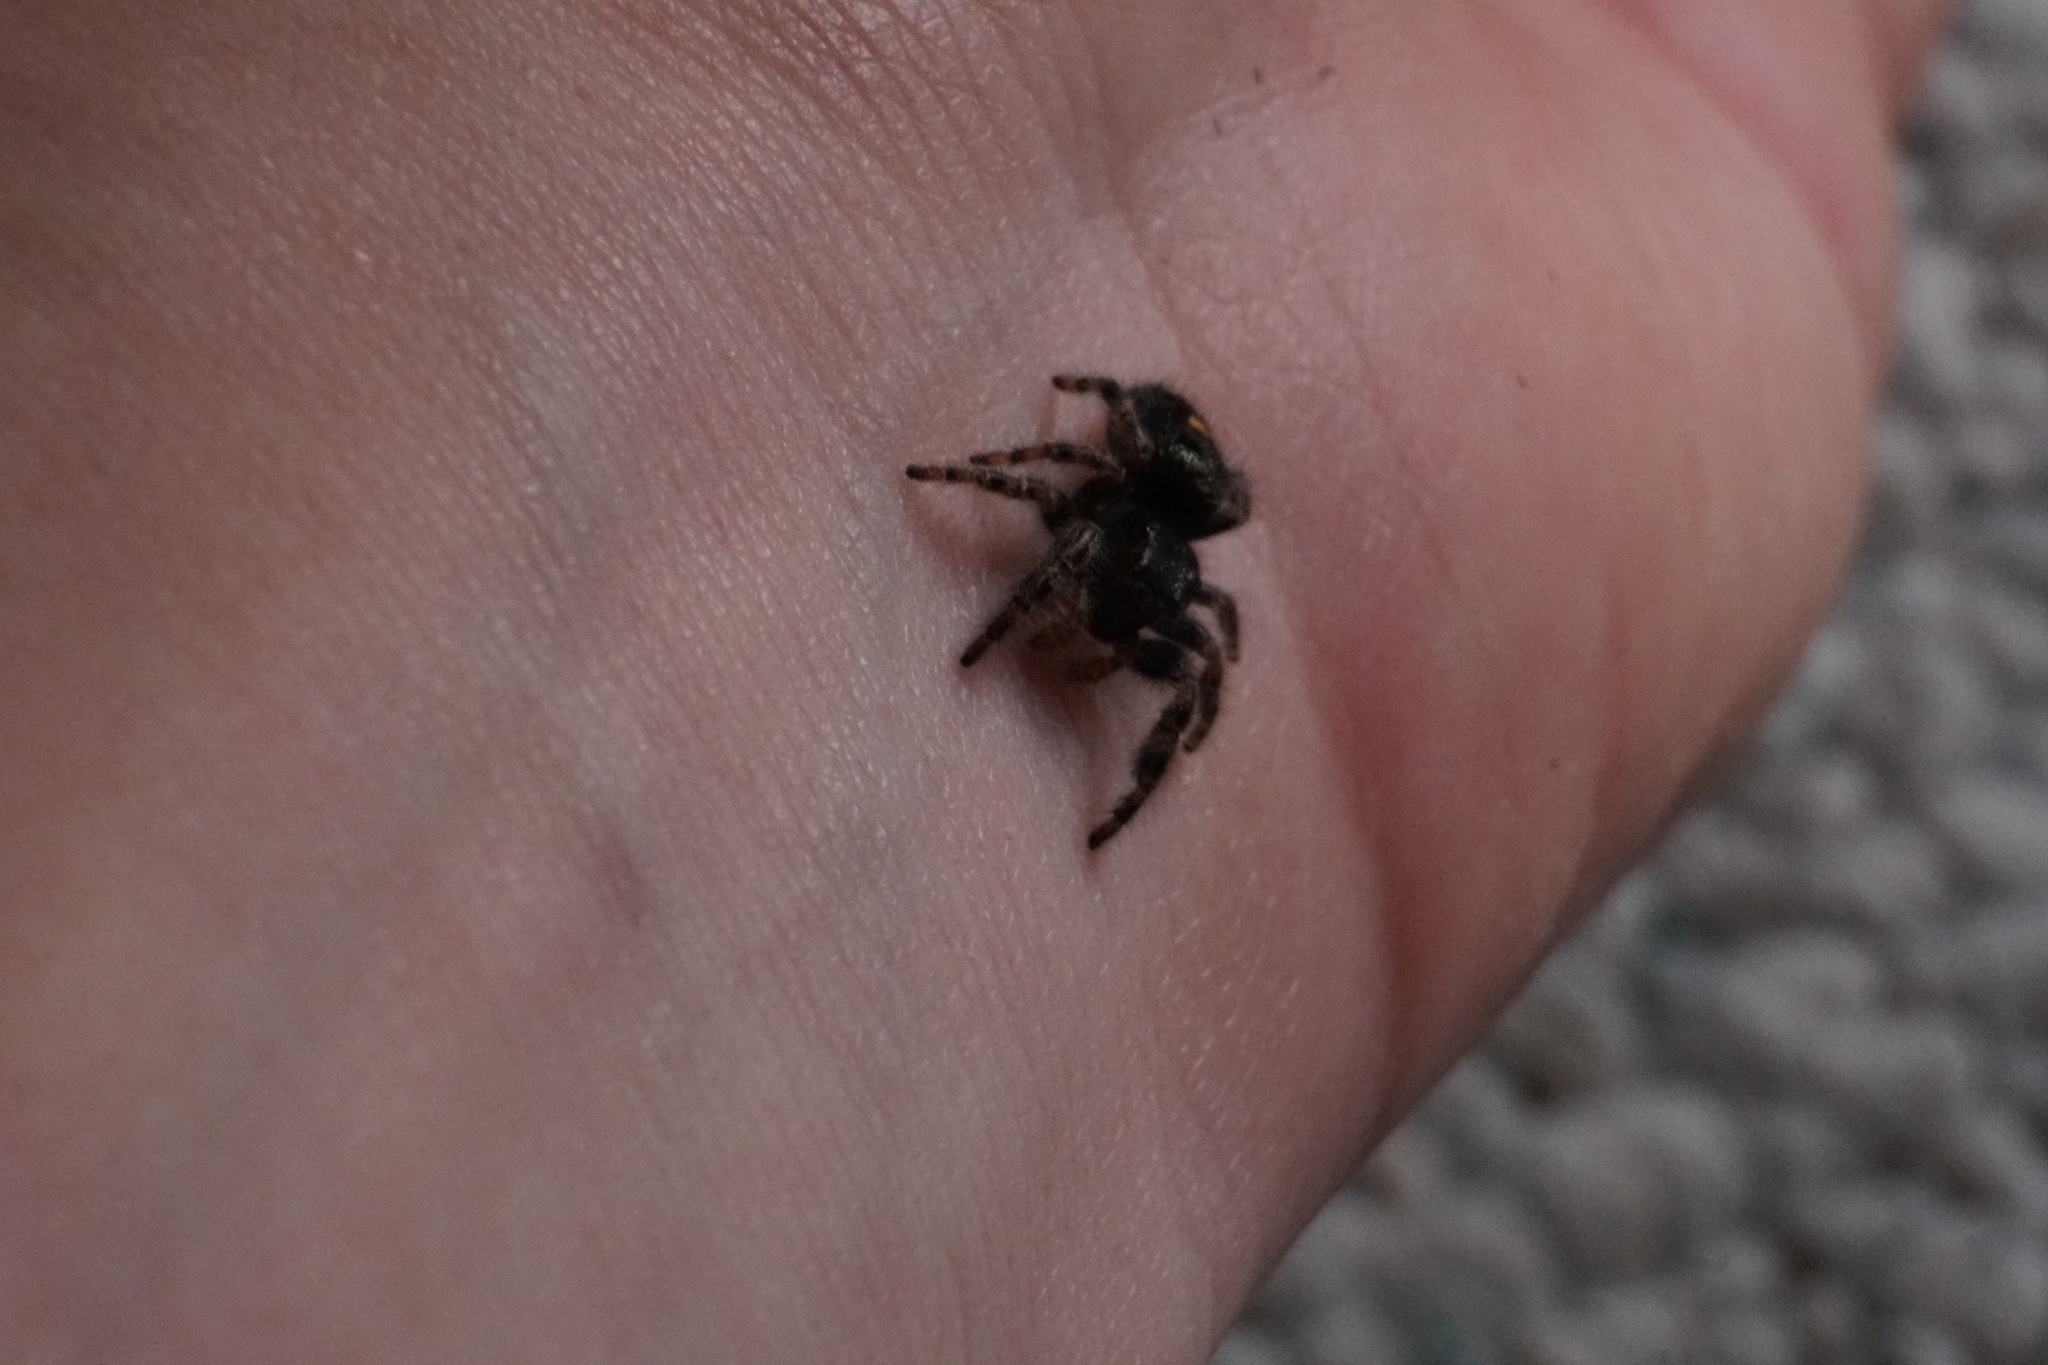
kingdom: Animalia
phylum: Arthropoda
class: Arachnida
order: Araneae
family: Salticidae
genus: Phidippus
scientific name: Phidippus audax
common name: Bold jumper
